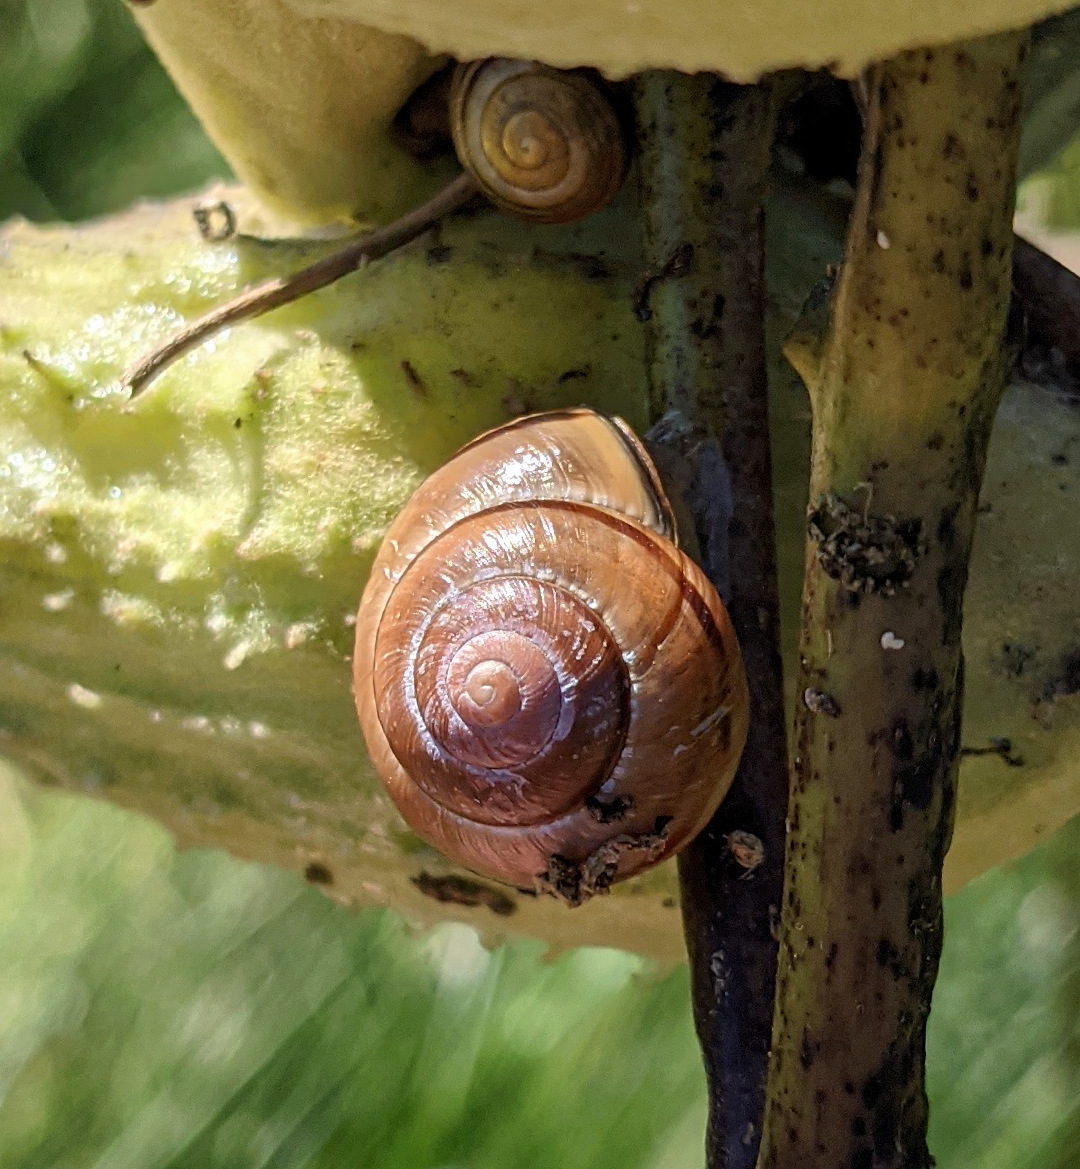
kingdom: Animalia
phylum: Mollusca
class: Gastropoda
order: Stylommatophora
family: Helicidae
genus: Cepaea
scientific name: Cepaea nemoralis
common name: Grovesnail
